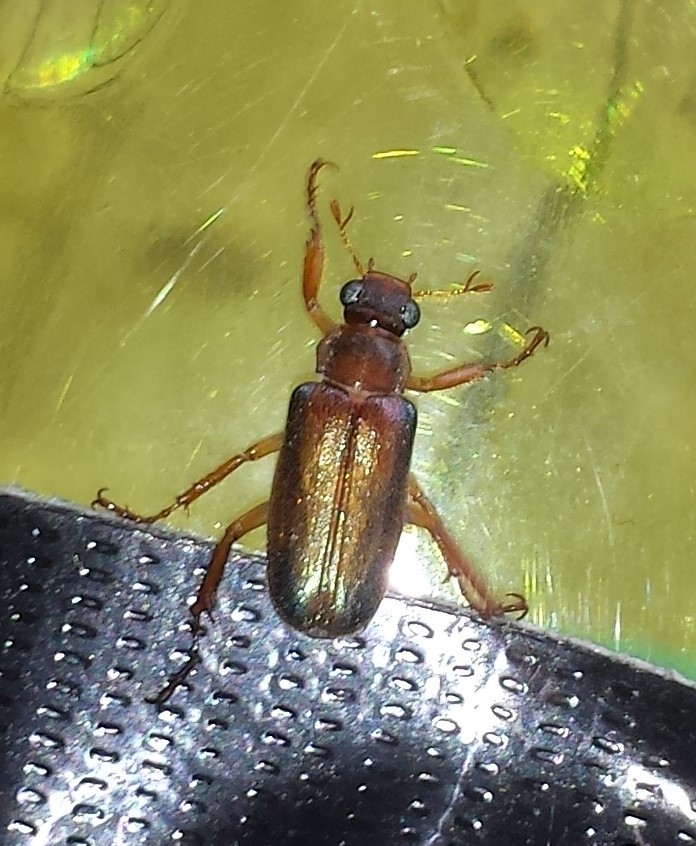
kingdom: Animalia
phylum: Arthropoda
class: Insecta
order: Coleoptera
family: Scarabaeidae
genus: Dichelonyx
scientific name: Dichelonyx subvittata
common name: Bronzed chafer
